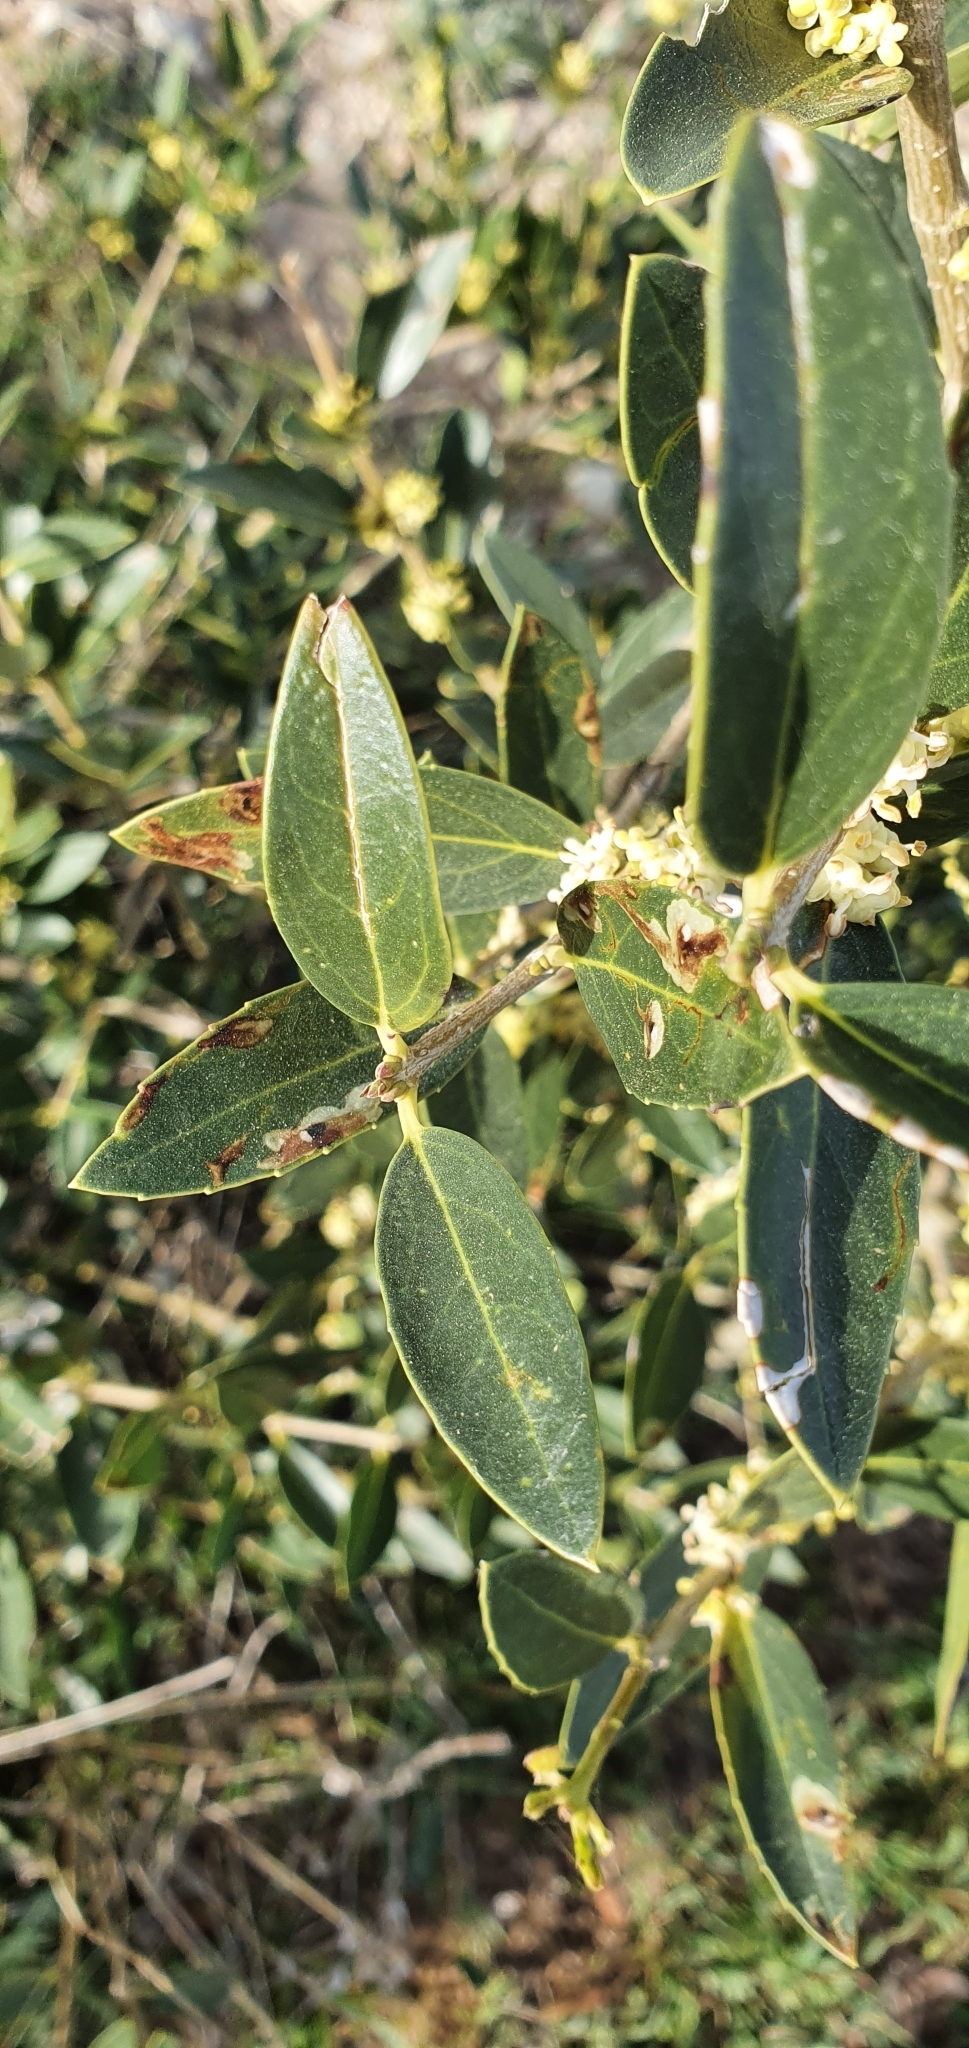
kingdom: Plantae
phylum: Tracheophyta
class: Magnoliopsida
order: Lamiales
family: Oleaceae
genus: Phillyrea
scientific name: Phillyrea latifolia
